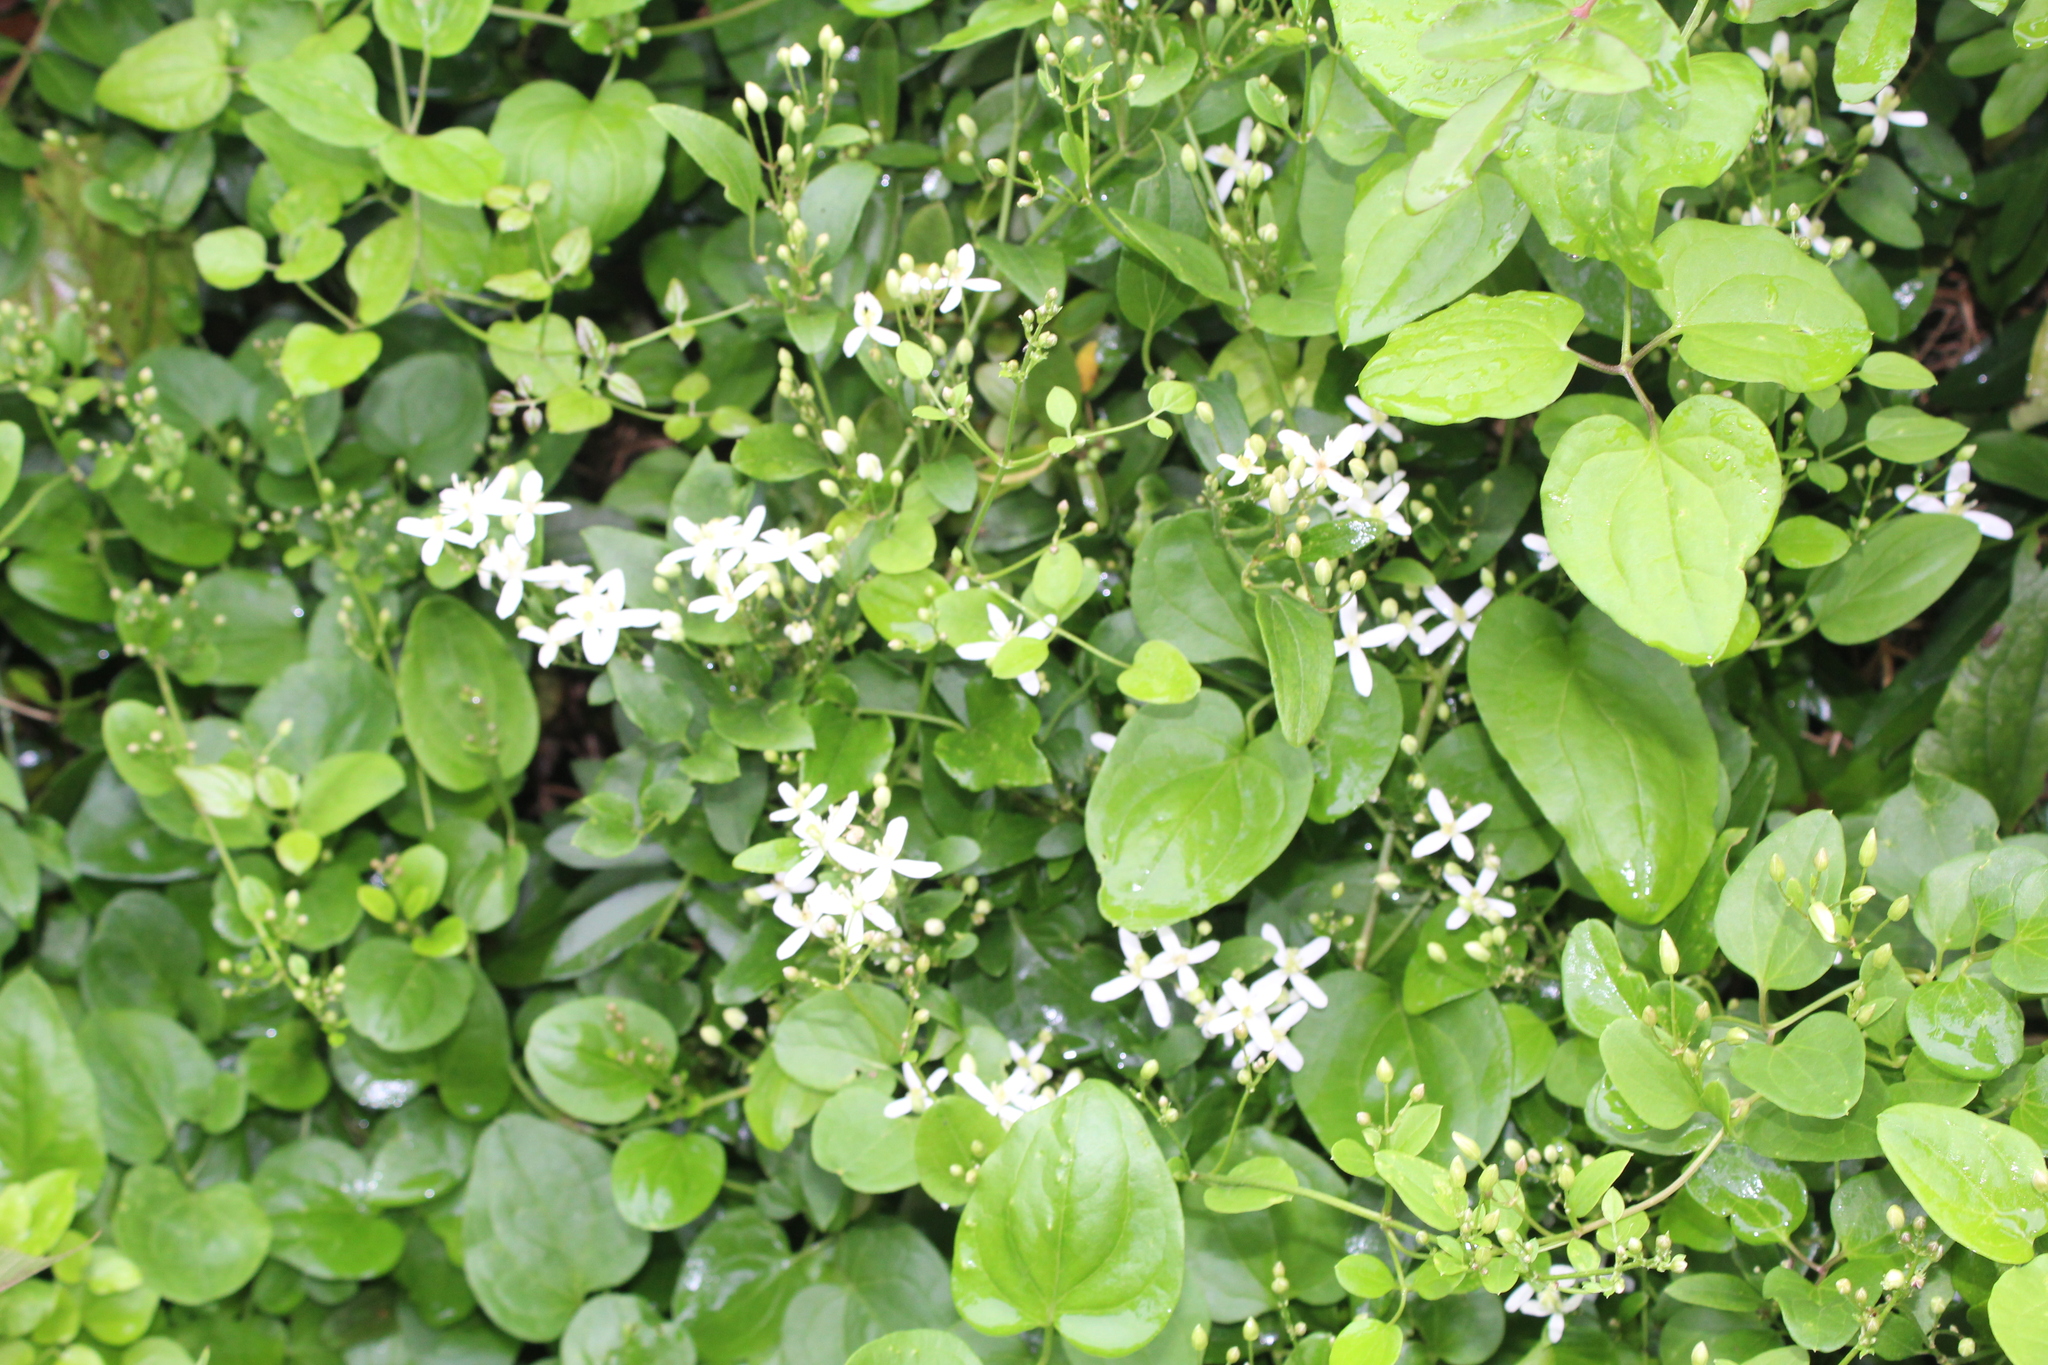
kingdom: Plantae
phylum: Tracheophyta
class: Magnoliopsida
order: Ranunculales
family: Ranunculaceae
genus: Clematis
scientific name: Clematis terniflora
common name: Sweet autumn clematis
